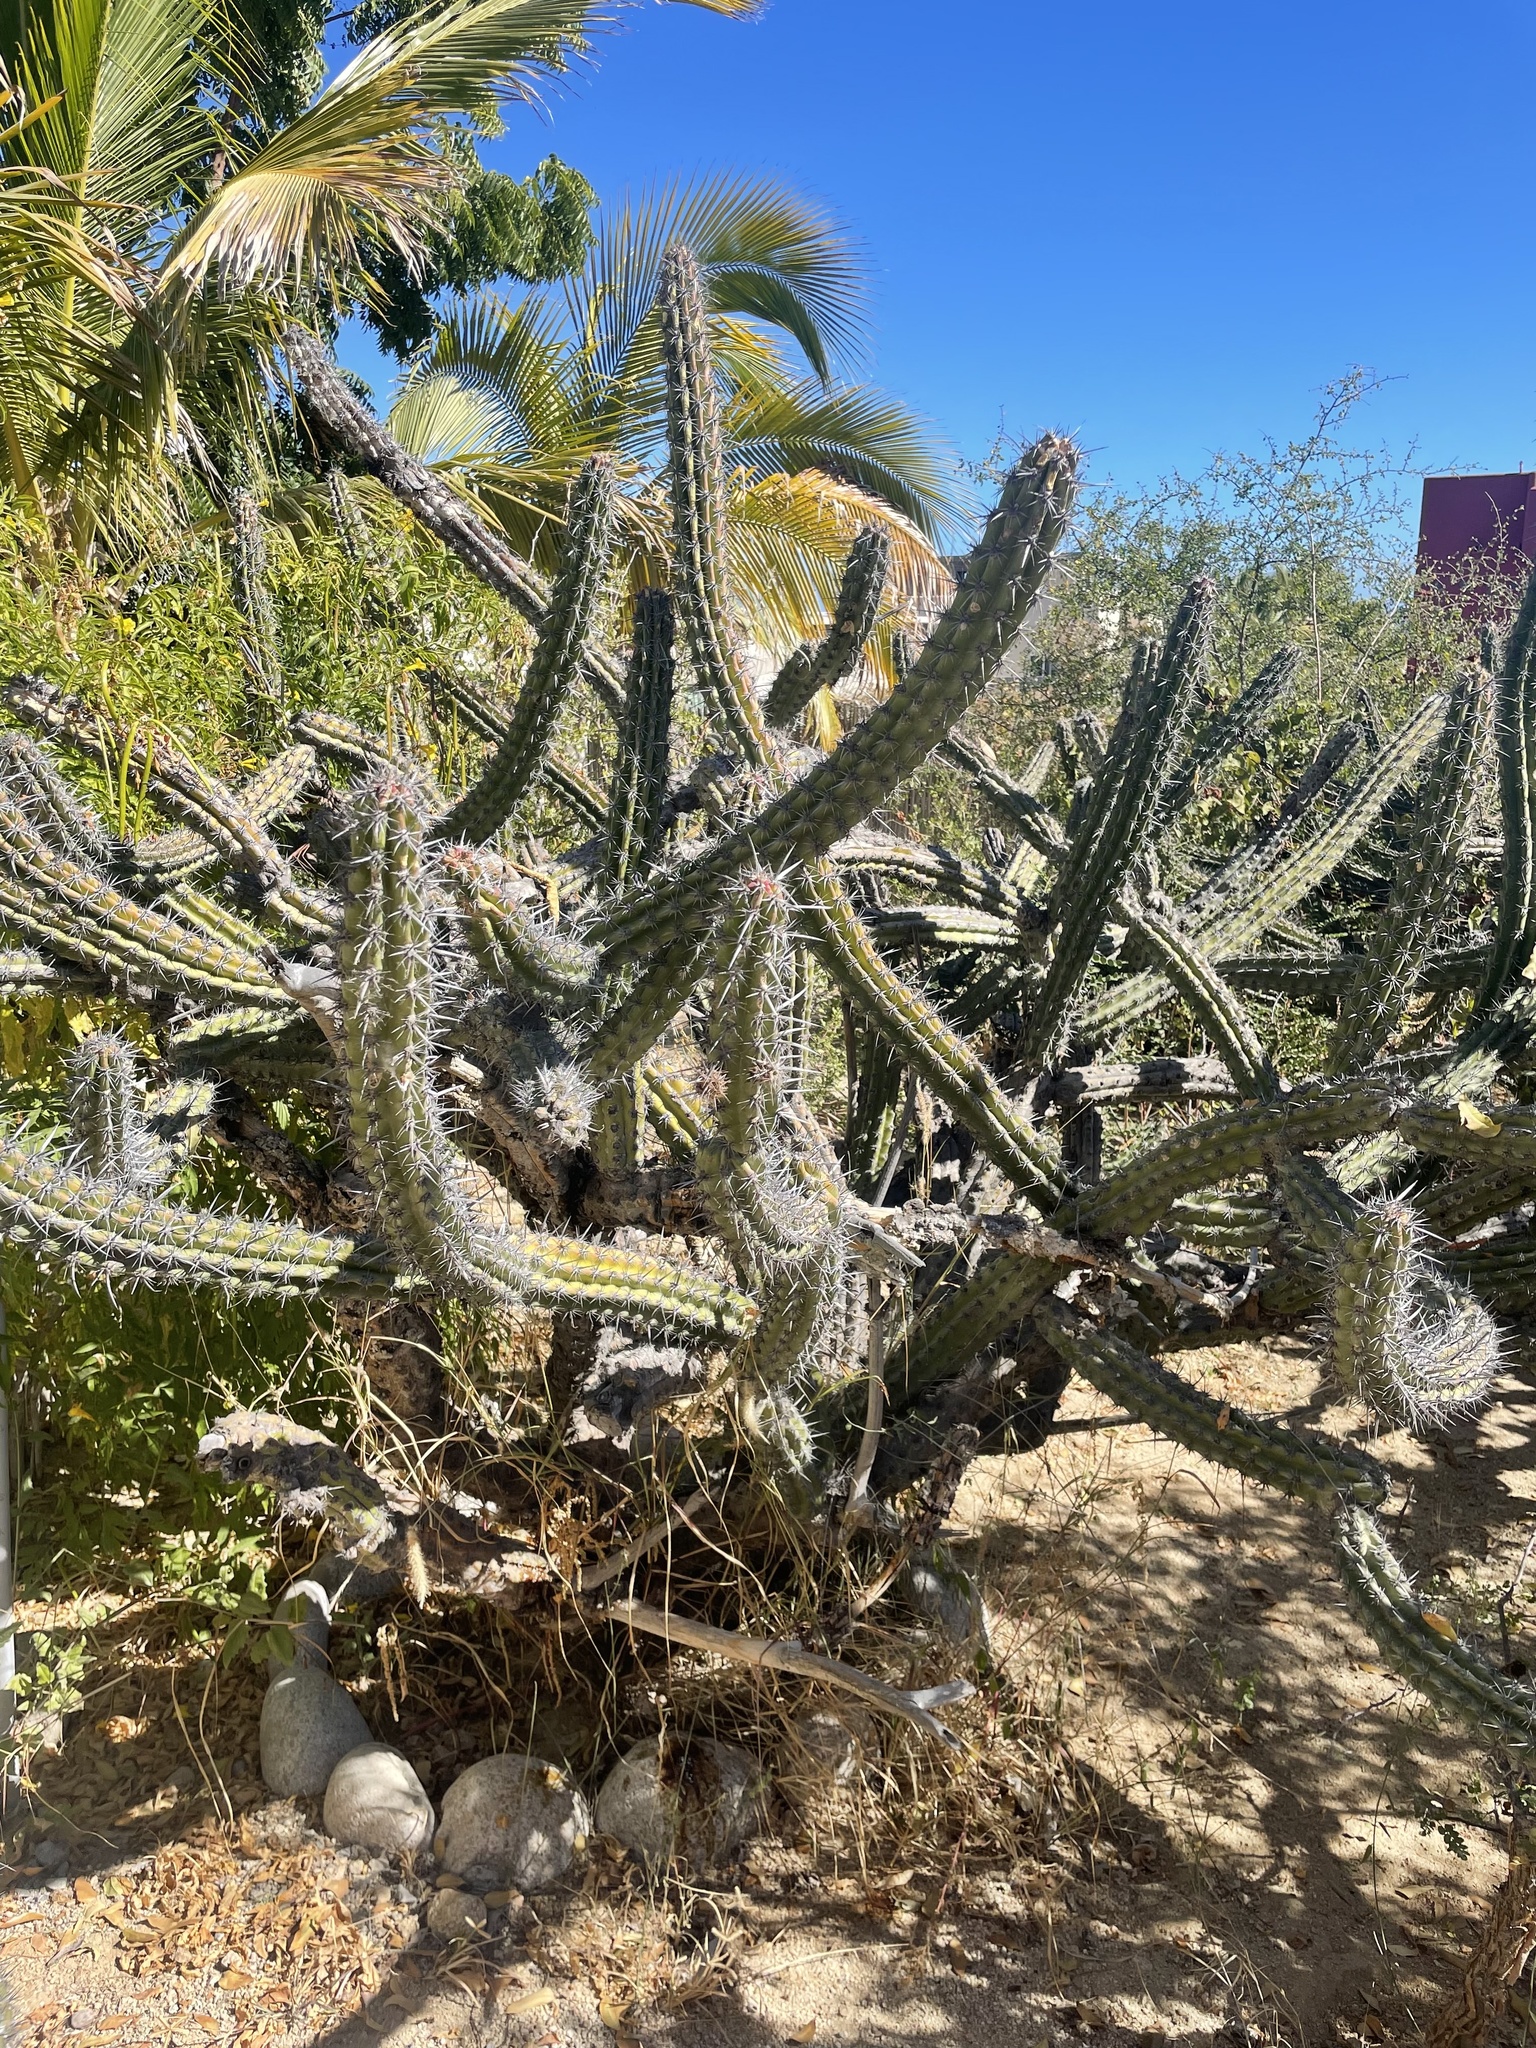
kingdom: Plantae
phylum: Tracheophyta
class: Magnoliopsida
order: Caryophyllales
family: Cactaceae
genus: Stenocereus
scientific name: Stenocereus gummosus
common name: Dagger cactus
